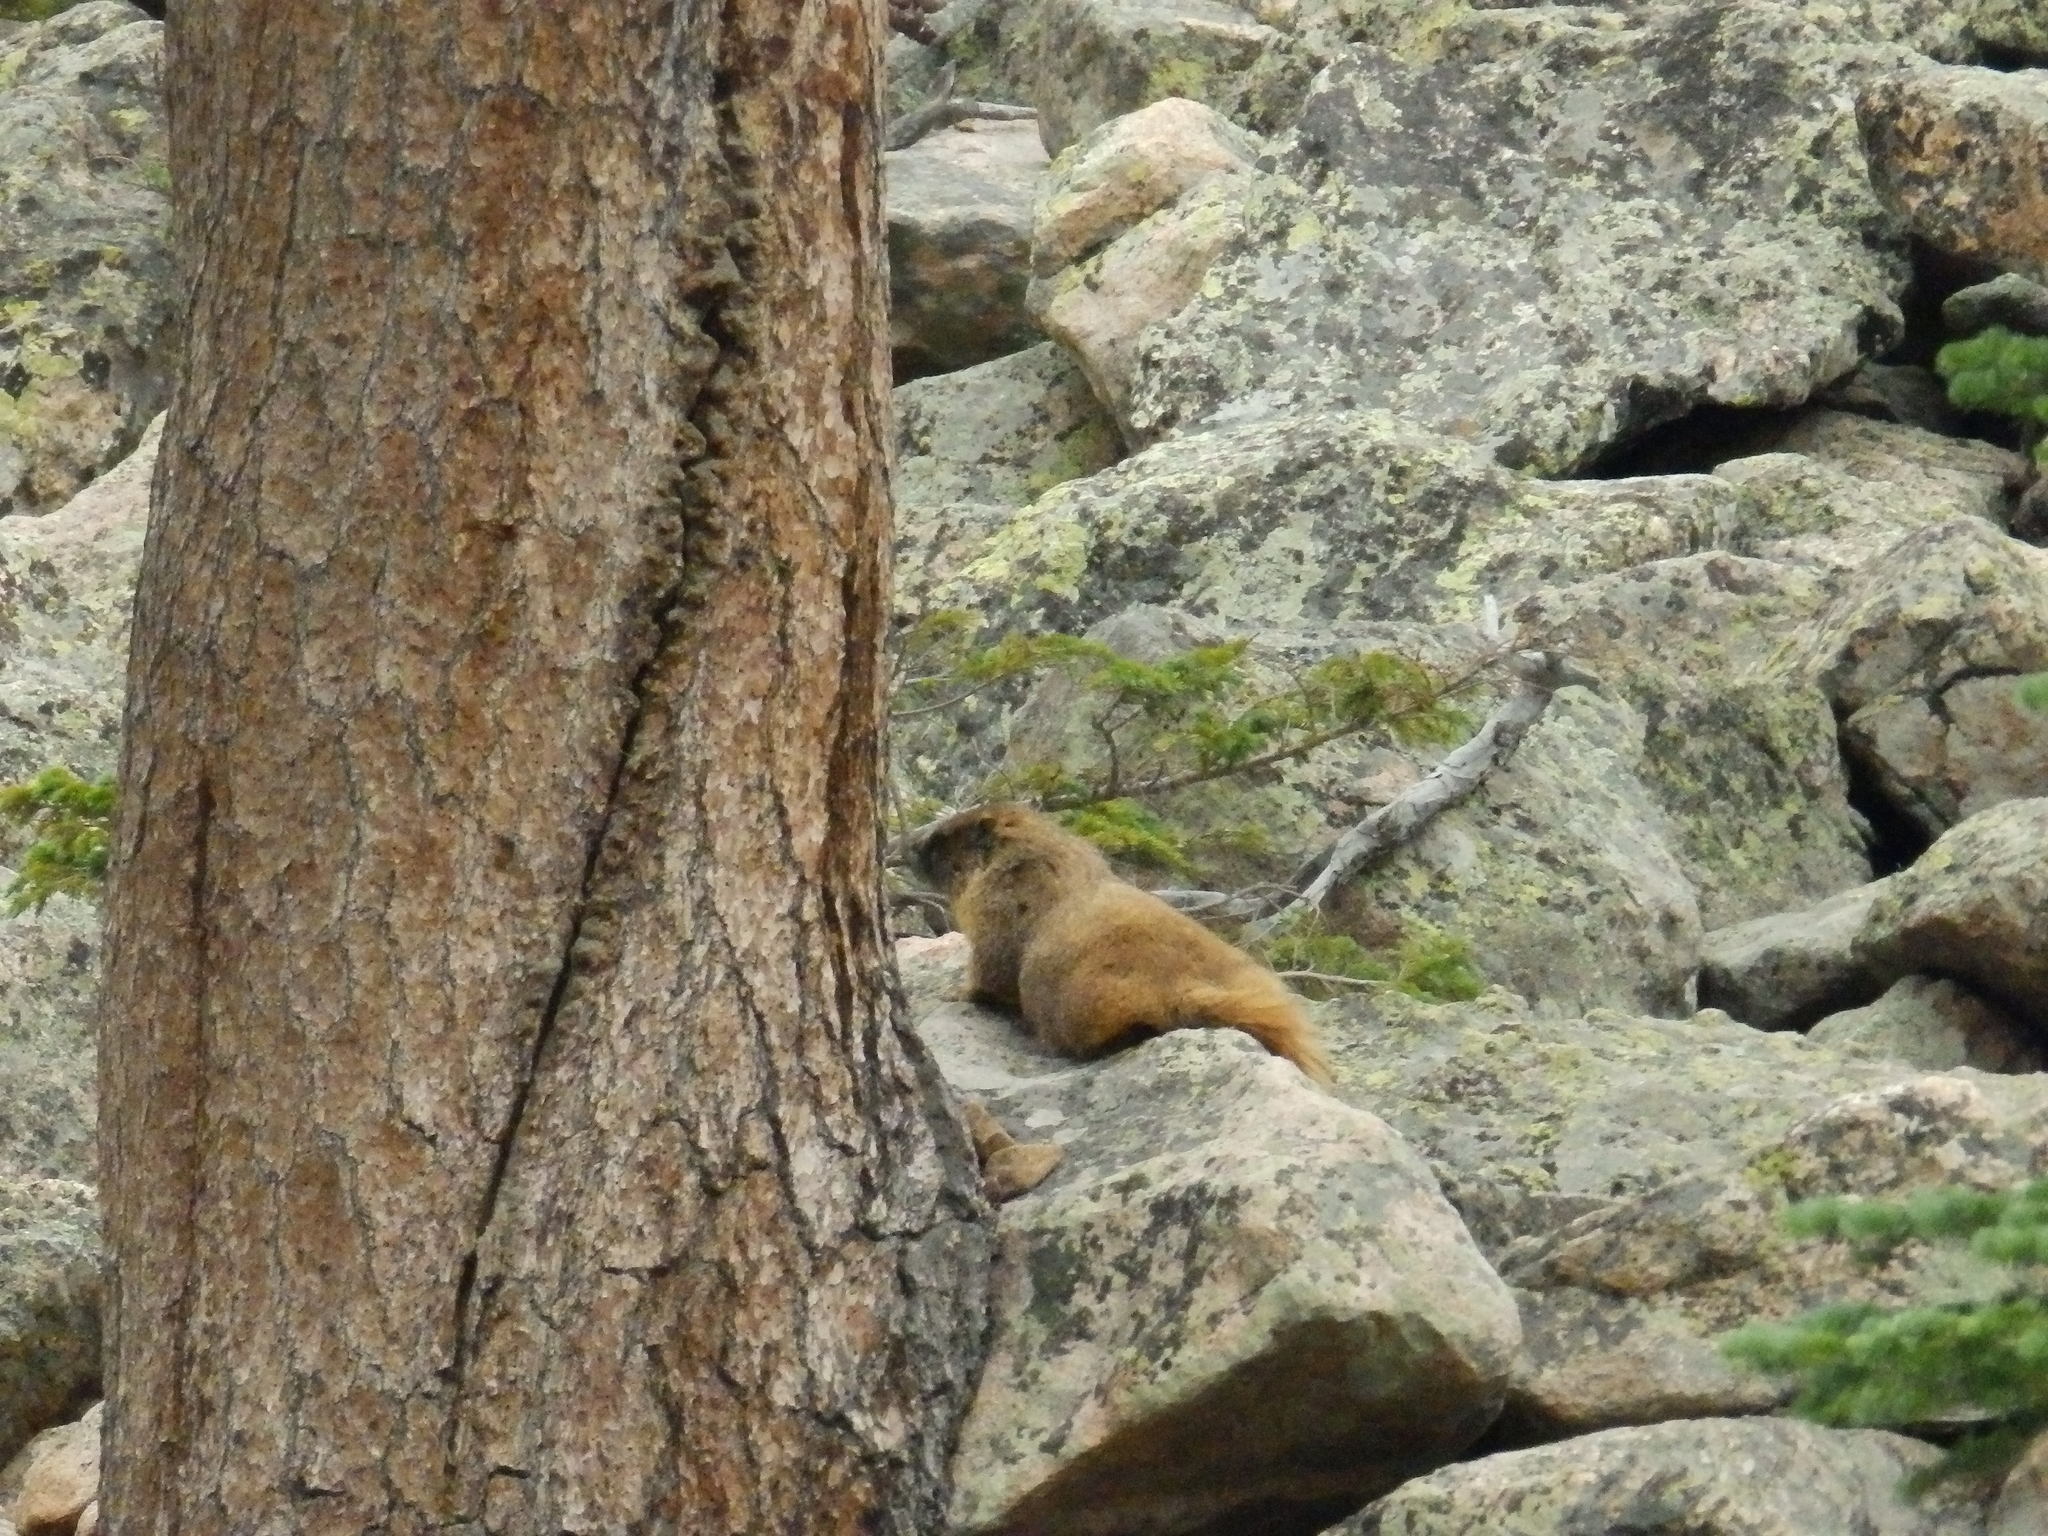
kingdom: Animalia
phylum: Chordata
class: Mammalia
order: Rodentia
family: Sciuridae
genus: Marmota
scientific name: Marmota flaviventris
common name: Yellow-bellied marmot
